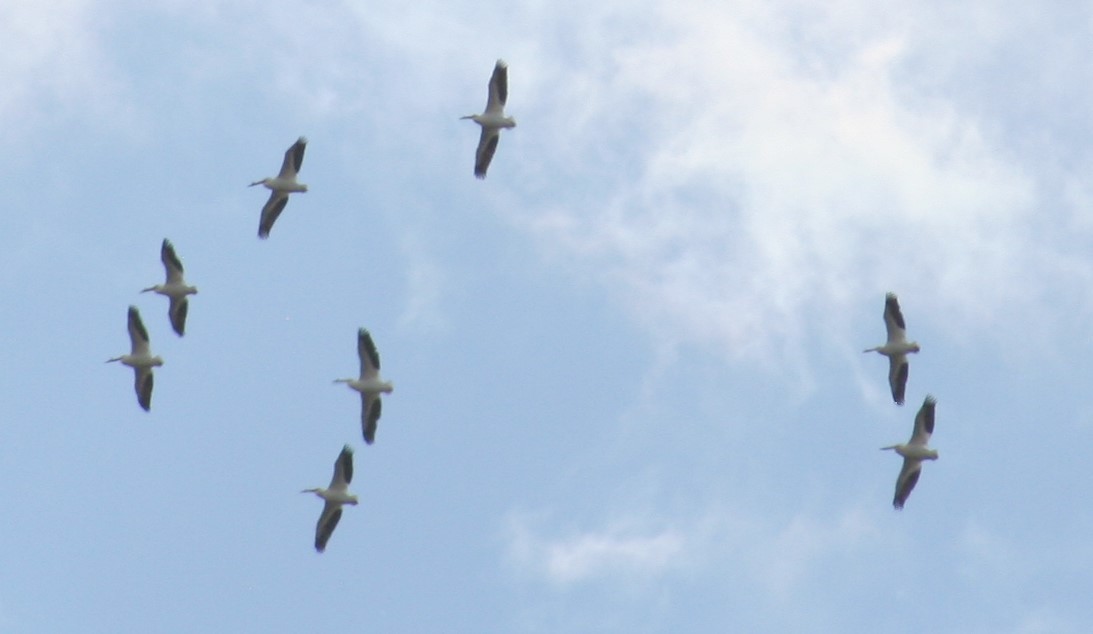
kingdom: Animalia
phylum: Chordata
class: Aves
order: Pelecaniformes
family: Pelecanidae
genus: Pelecanus
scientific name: Pelecanus erythrorhynchos
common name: American white pelican
